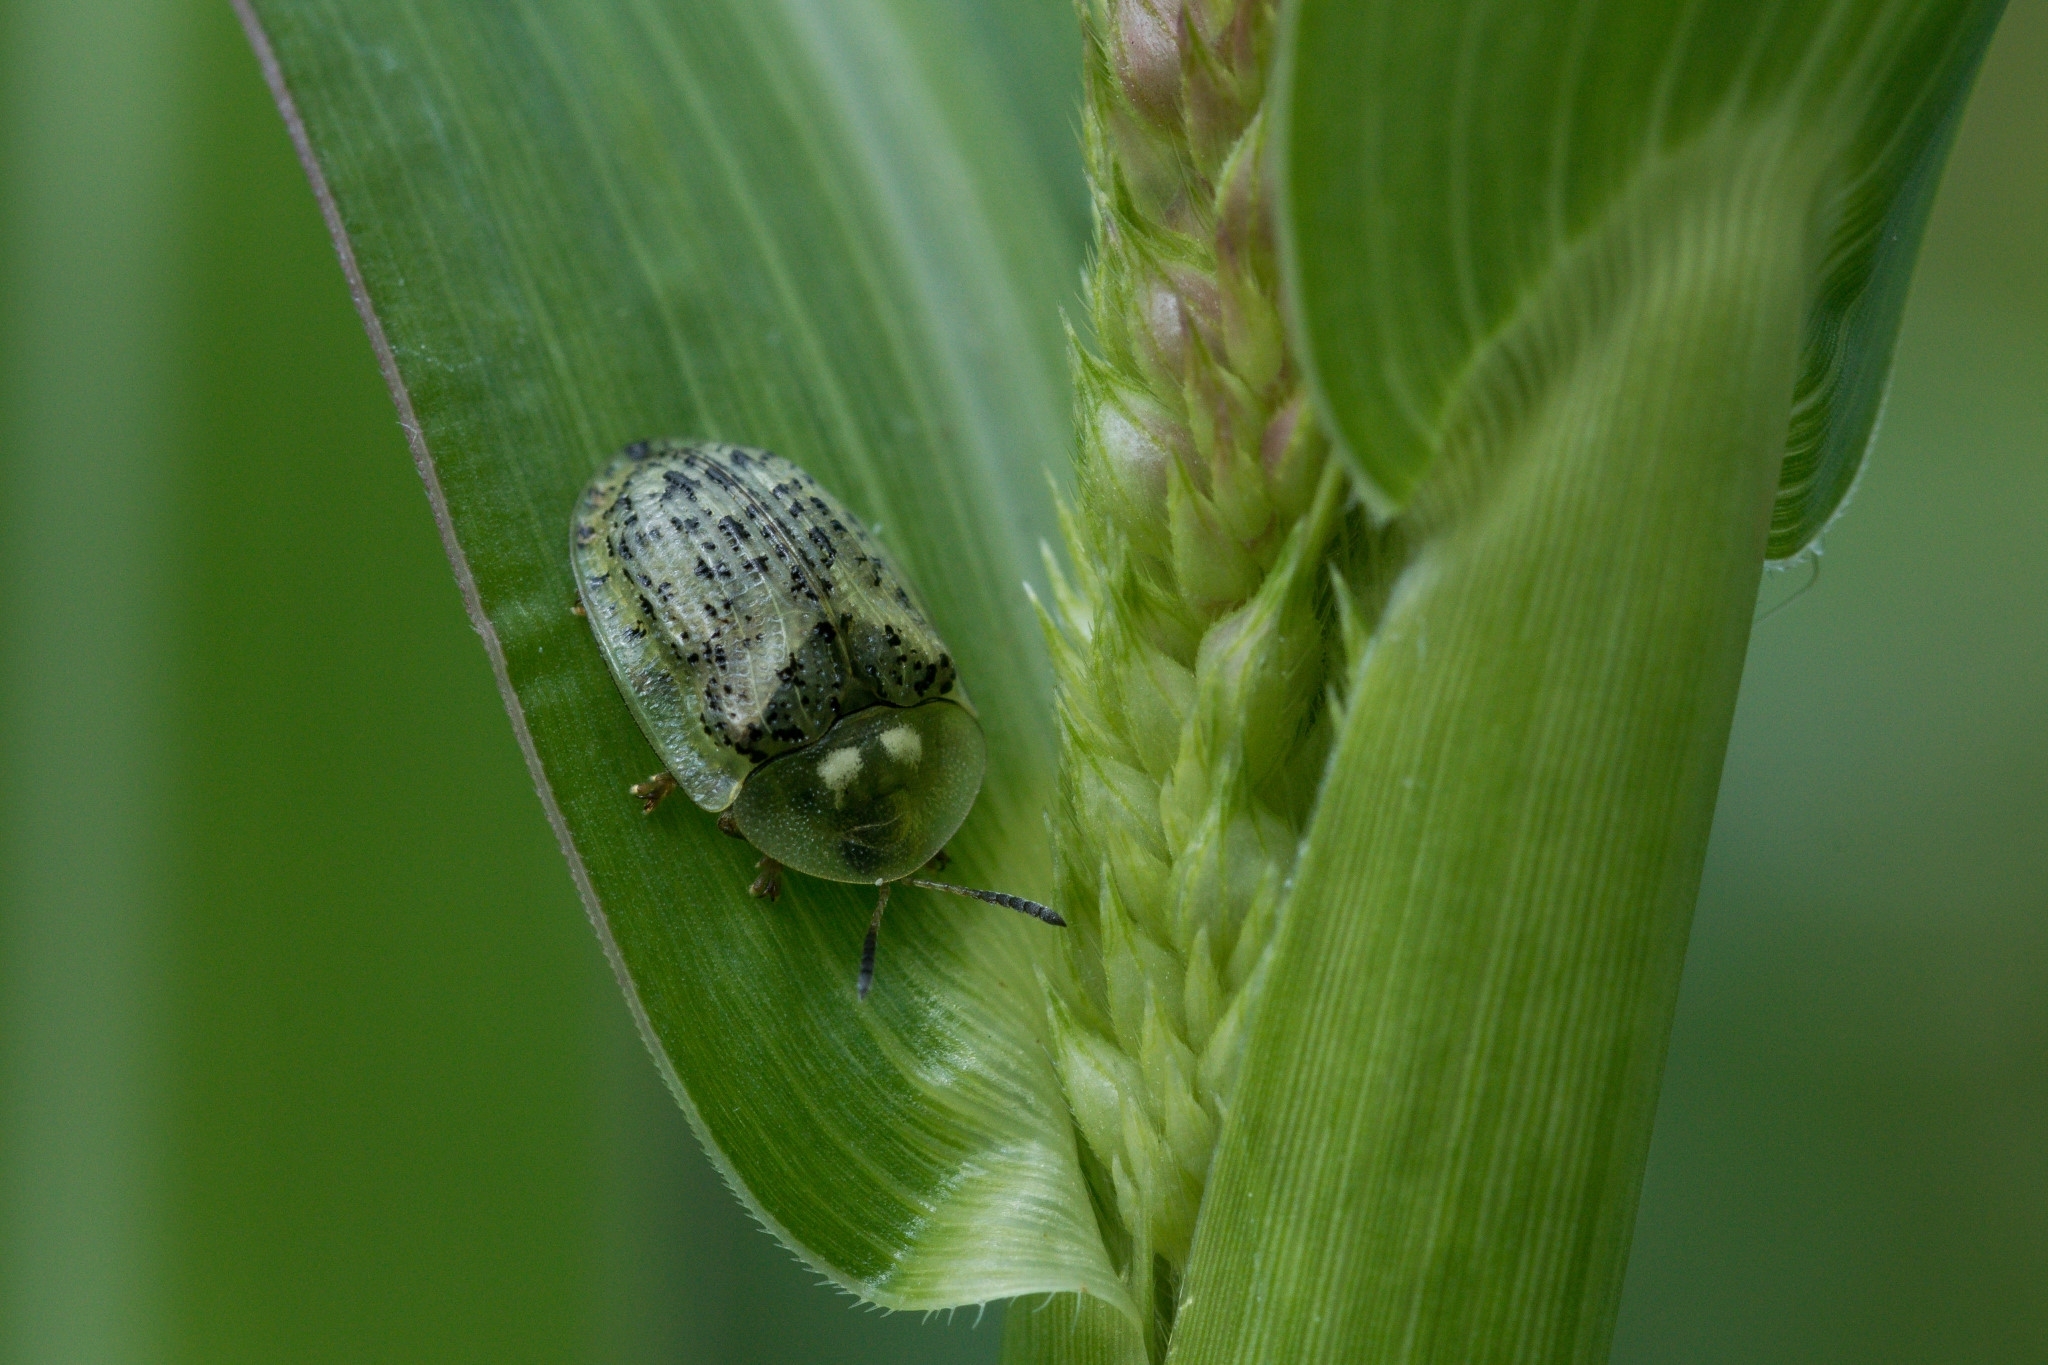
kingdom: Animalia
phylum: Arthropoda
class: Insecta
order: Coleoptera
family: Chrysomelidae
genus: Cassida
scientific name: Cassida nebulosa
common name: Beet tortoise beetle
